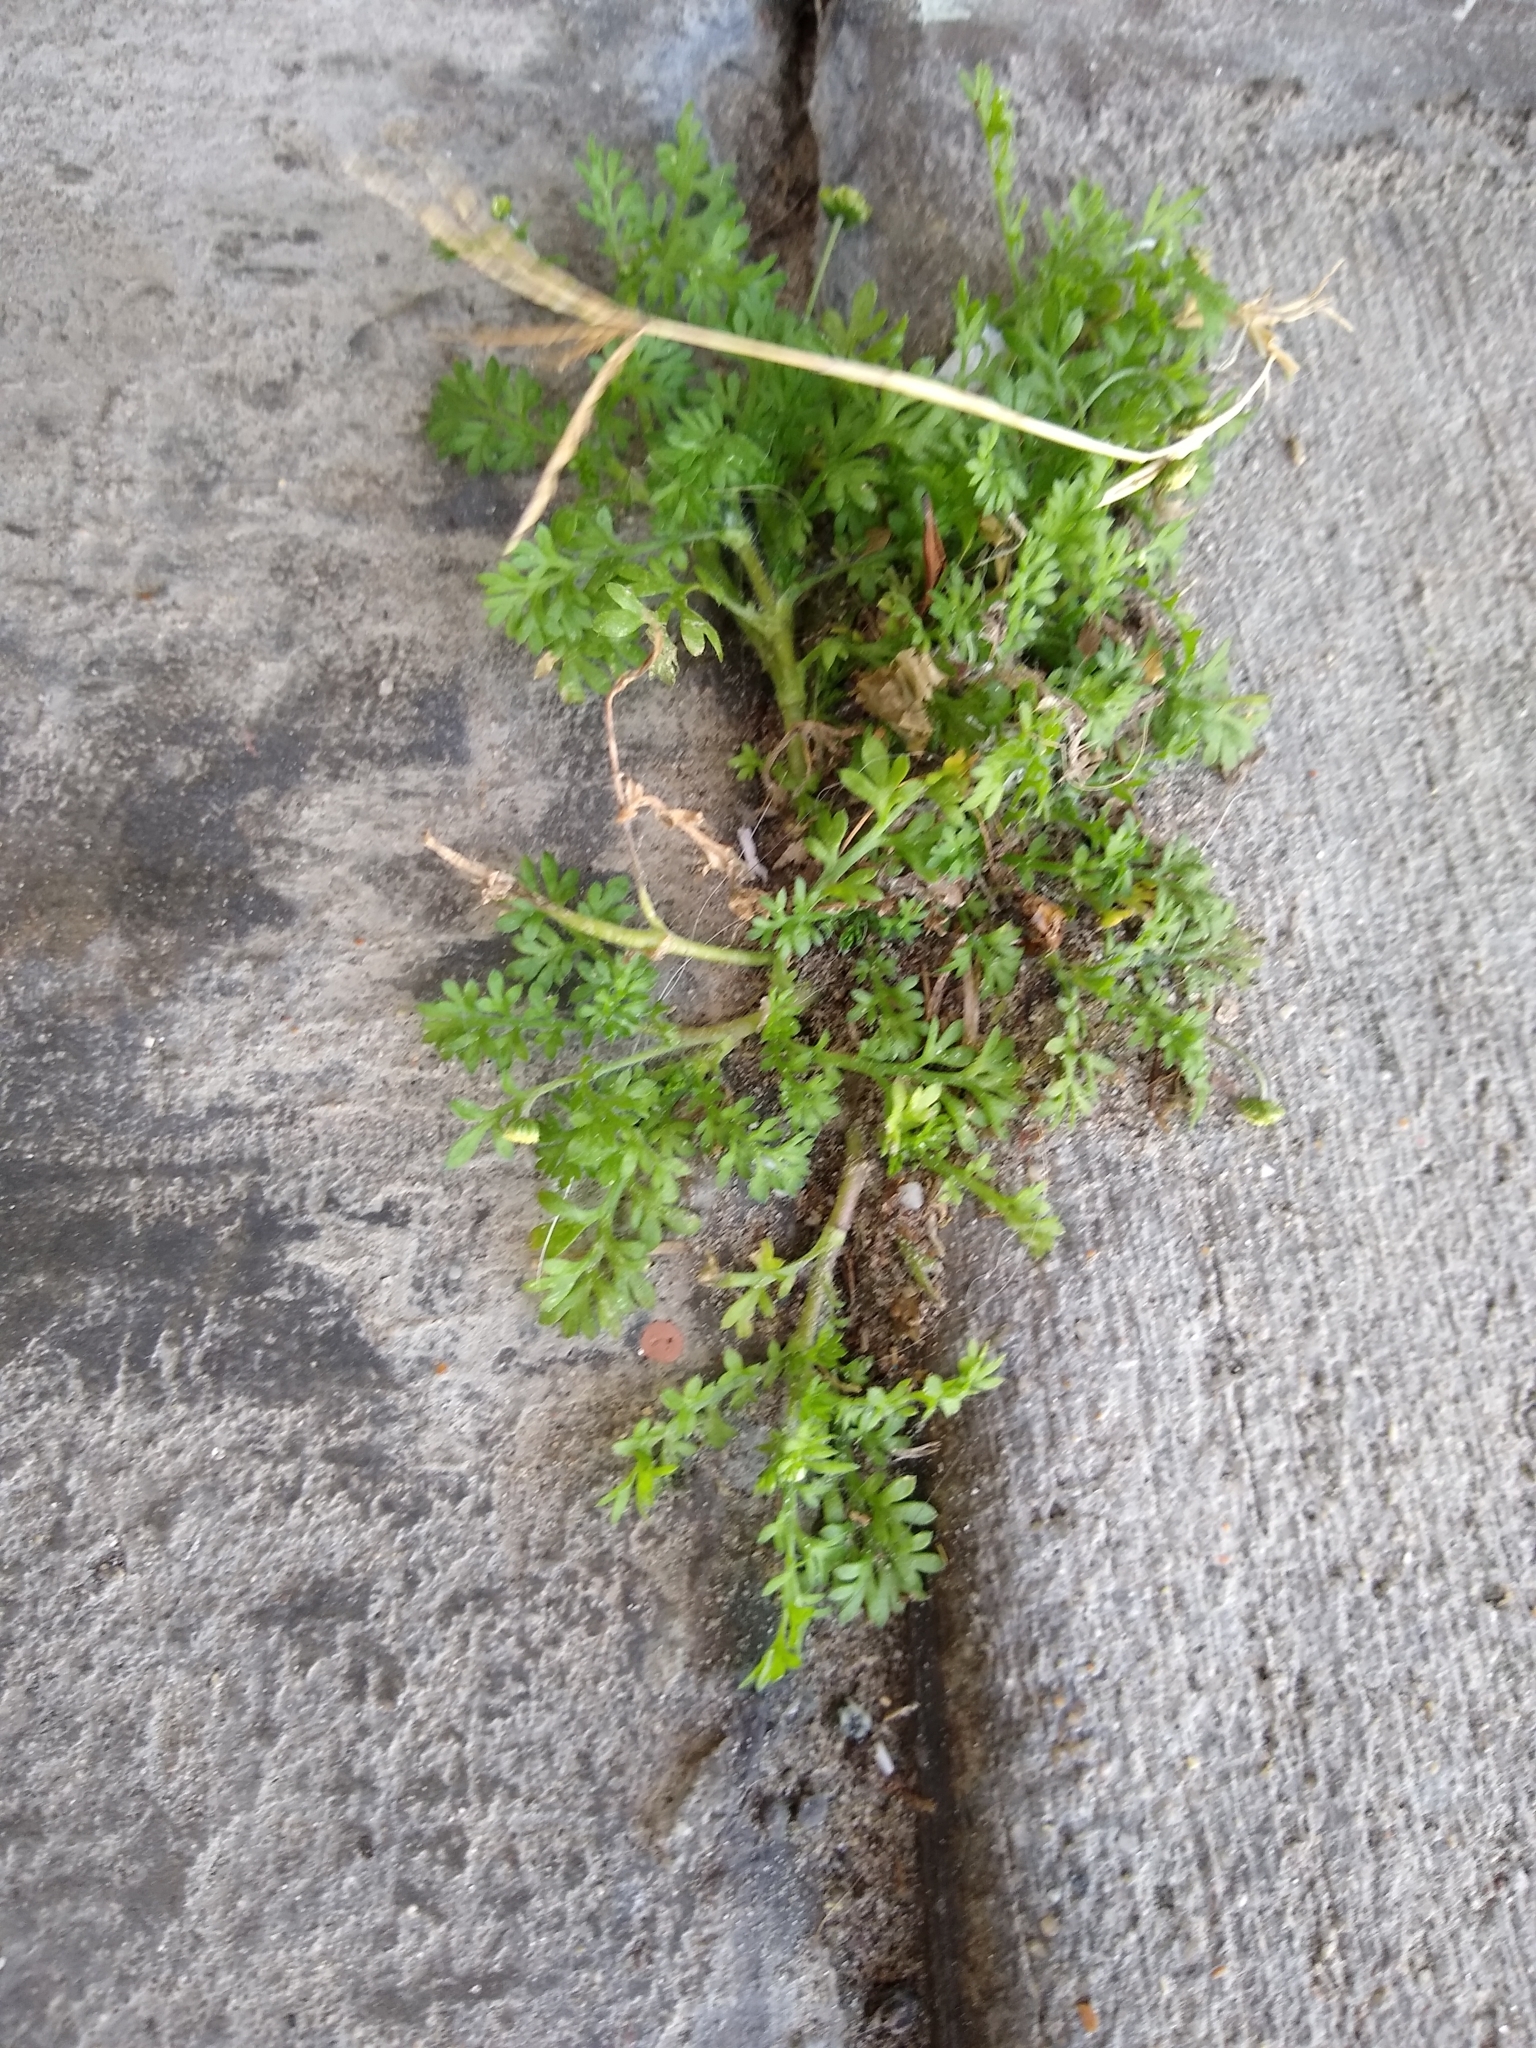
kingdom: Plantae
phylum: Tracheophyta
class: Magnoliopsida
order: Asterales
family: Asteraceae
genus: Cotula
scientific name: Cotula australis
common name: Australian waterbuttons
